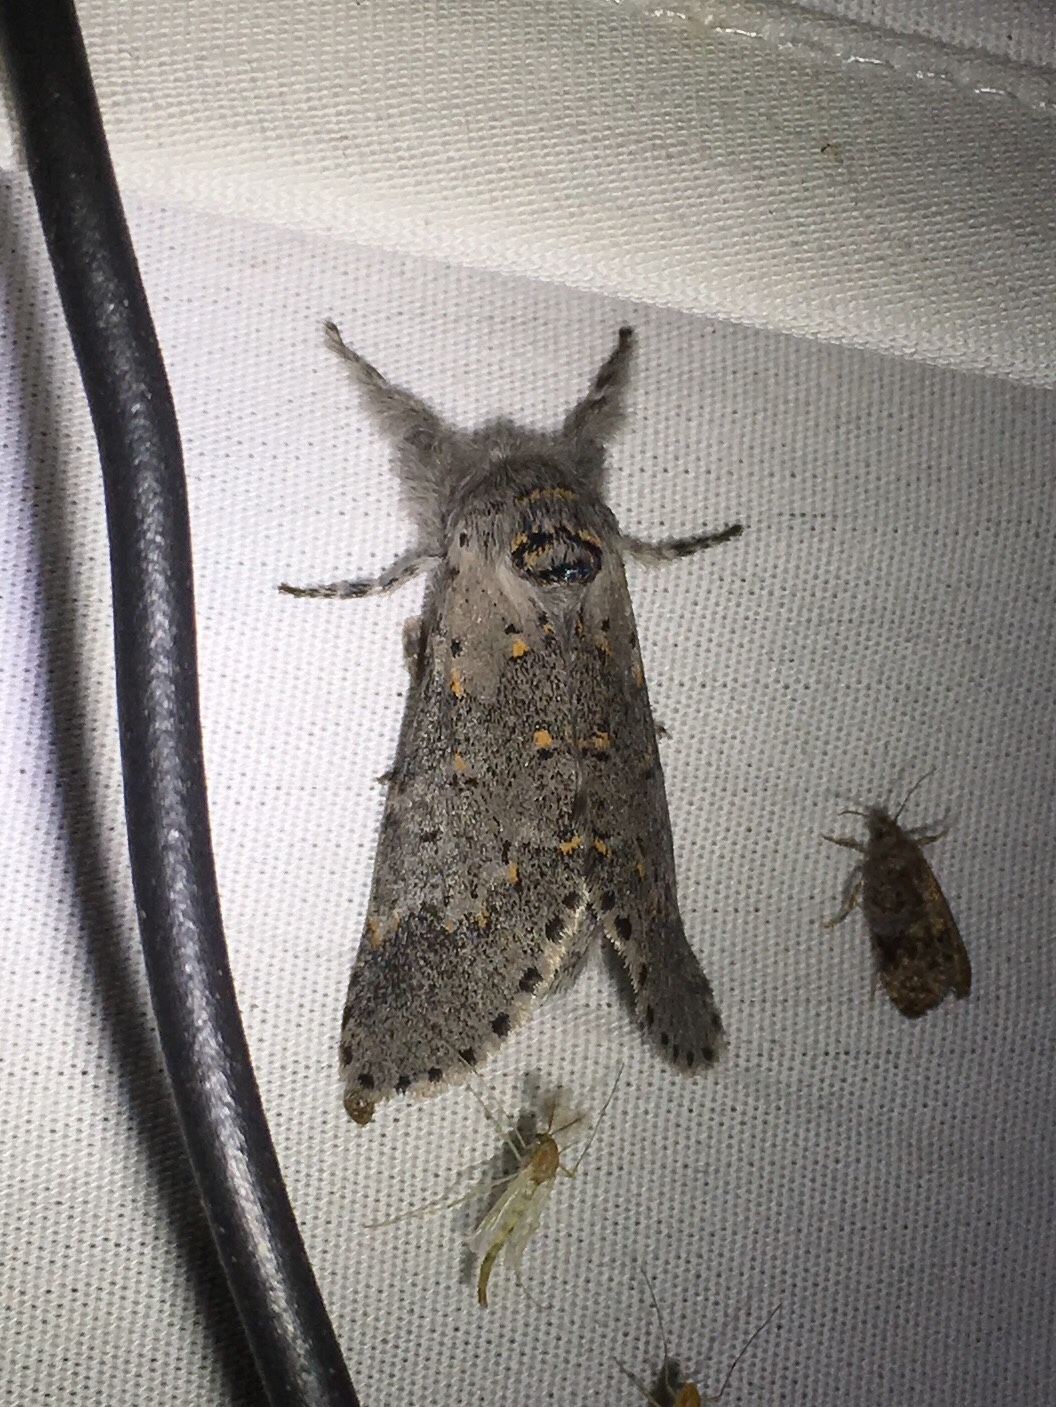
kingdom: Animalia
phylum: Arthropoda
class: Insecta
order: Lepidoptera
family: Notodontidae
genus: Furcula
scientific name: Furcula cinerea
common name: Gray furcula
